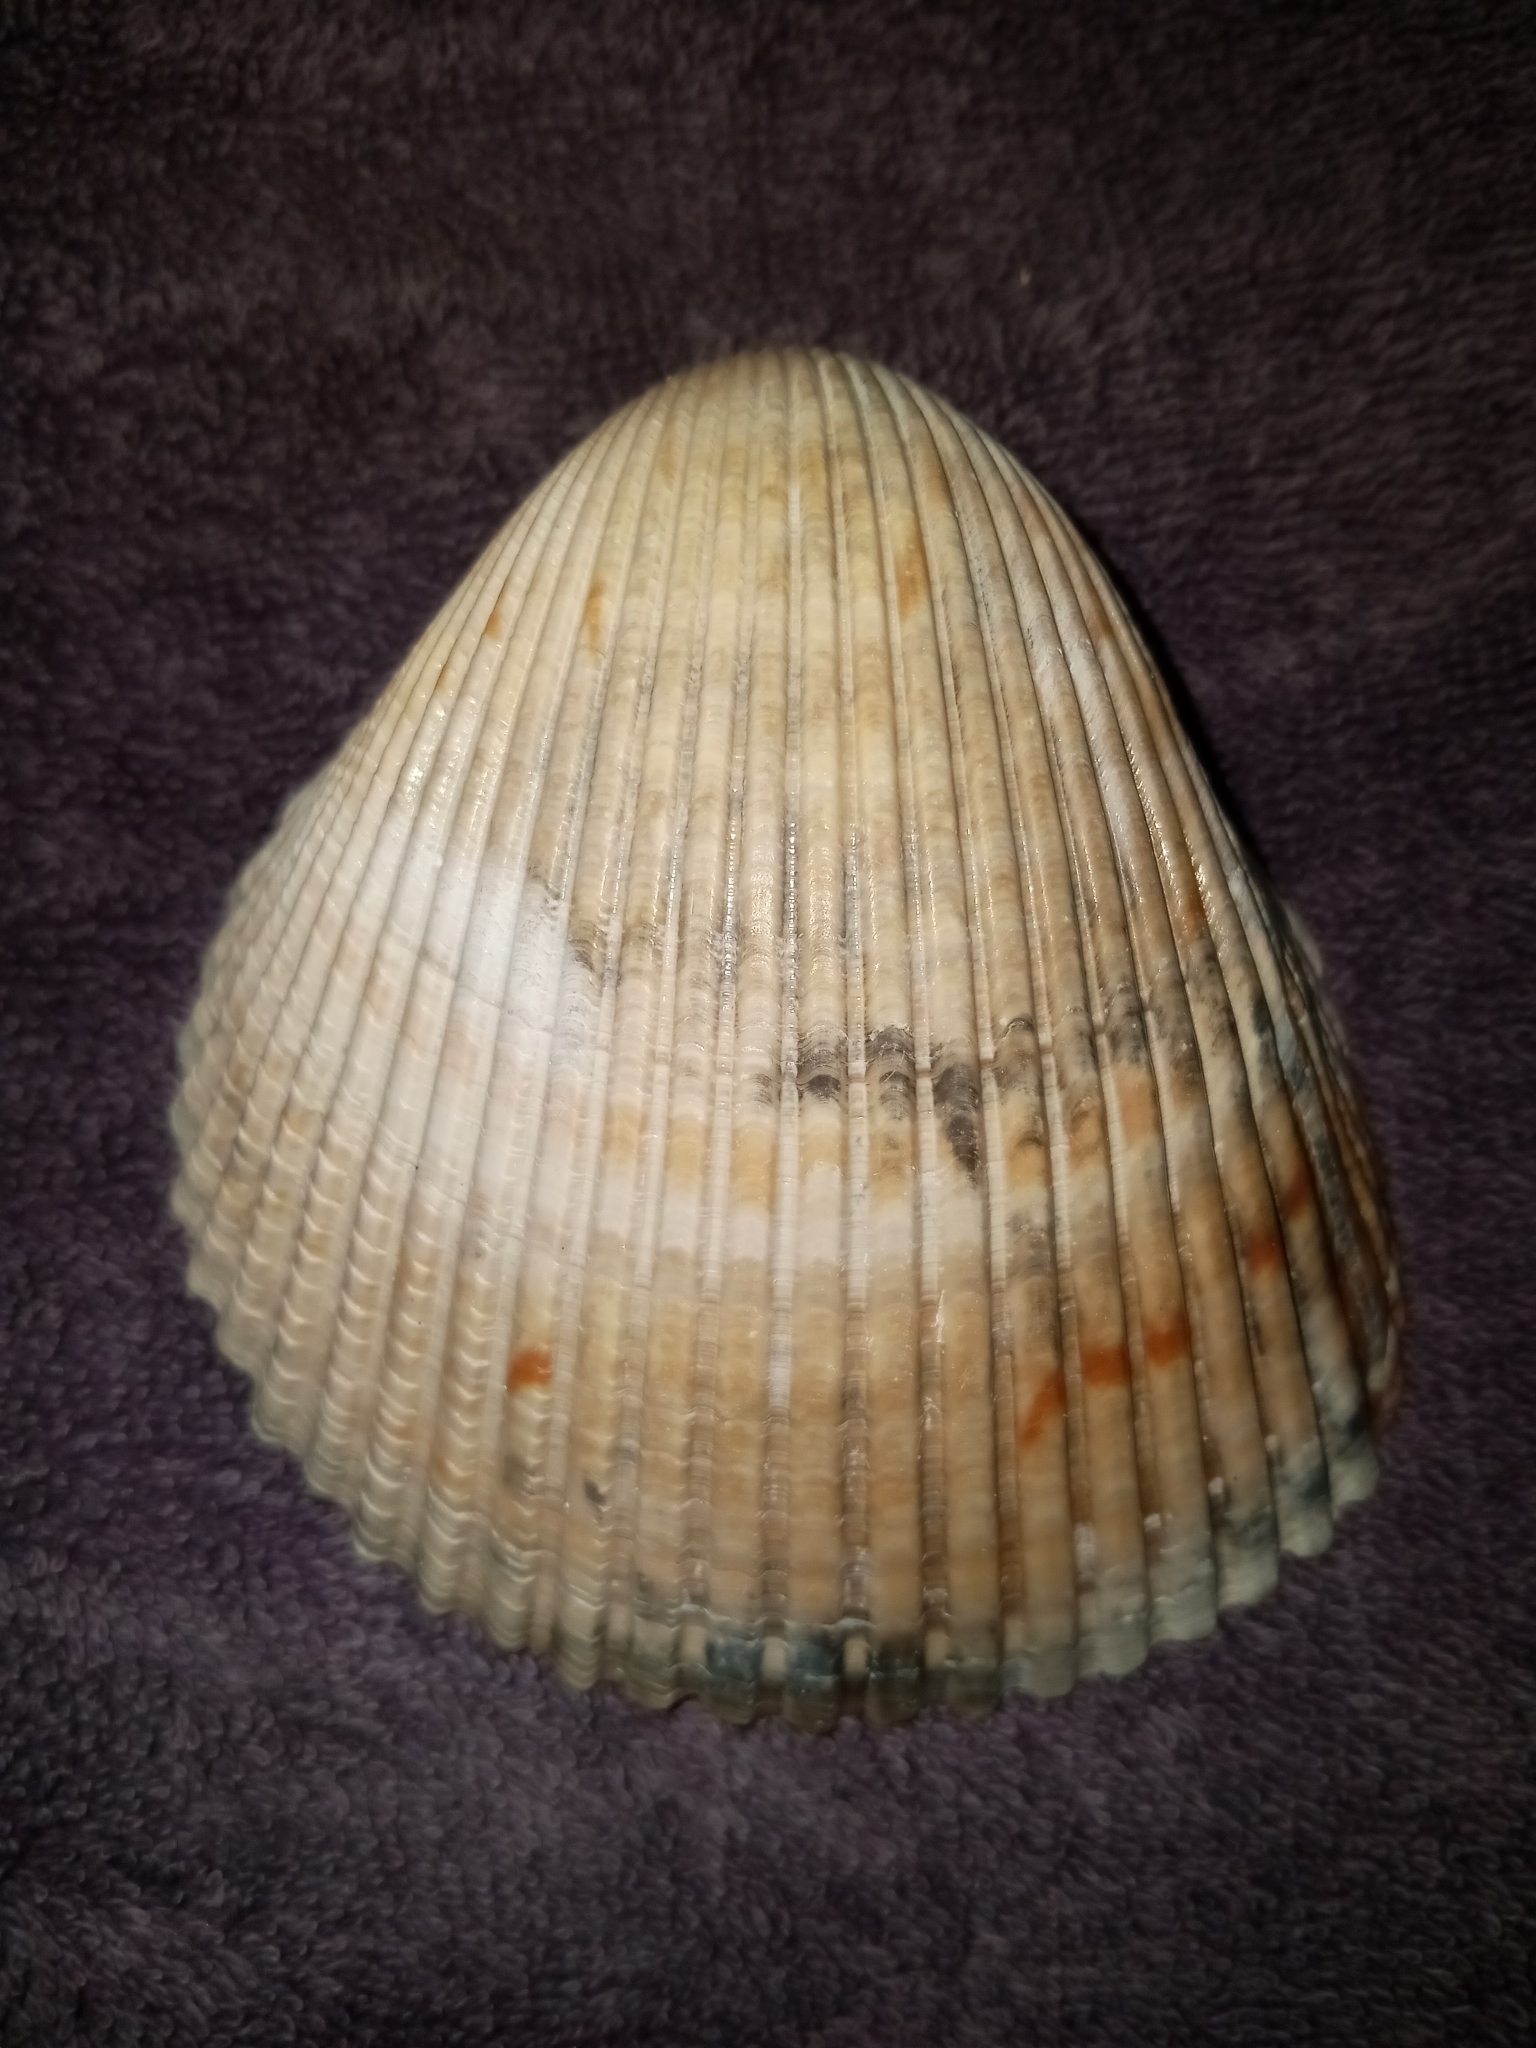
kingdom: Animalia
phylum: Mollusca
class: Bivalvia
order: Cardiida
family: Cardiidae
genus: Dinocardium
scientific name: Dinocardium robustum
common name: Atlantic giant cockle
